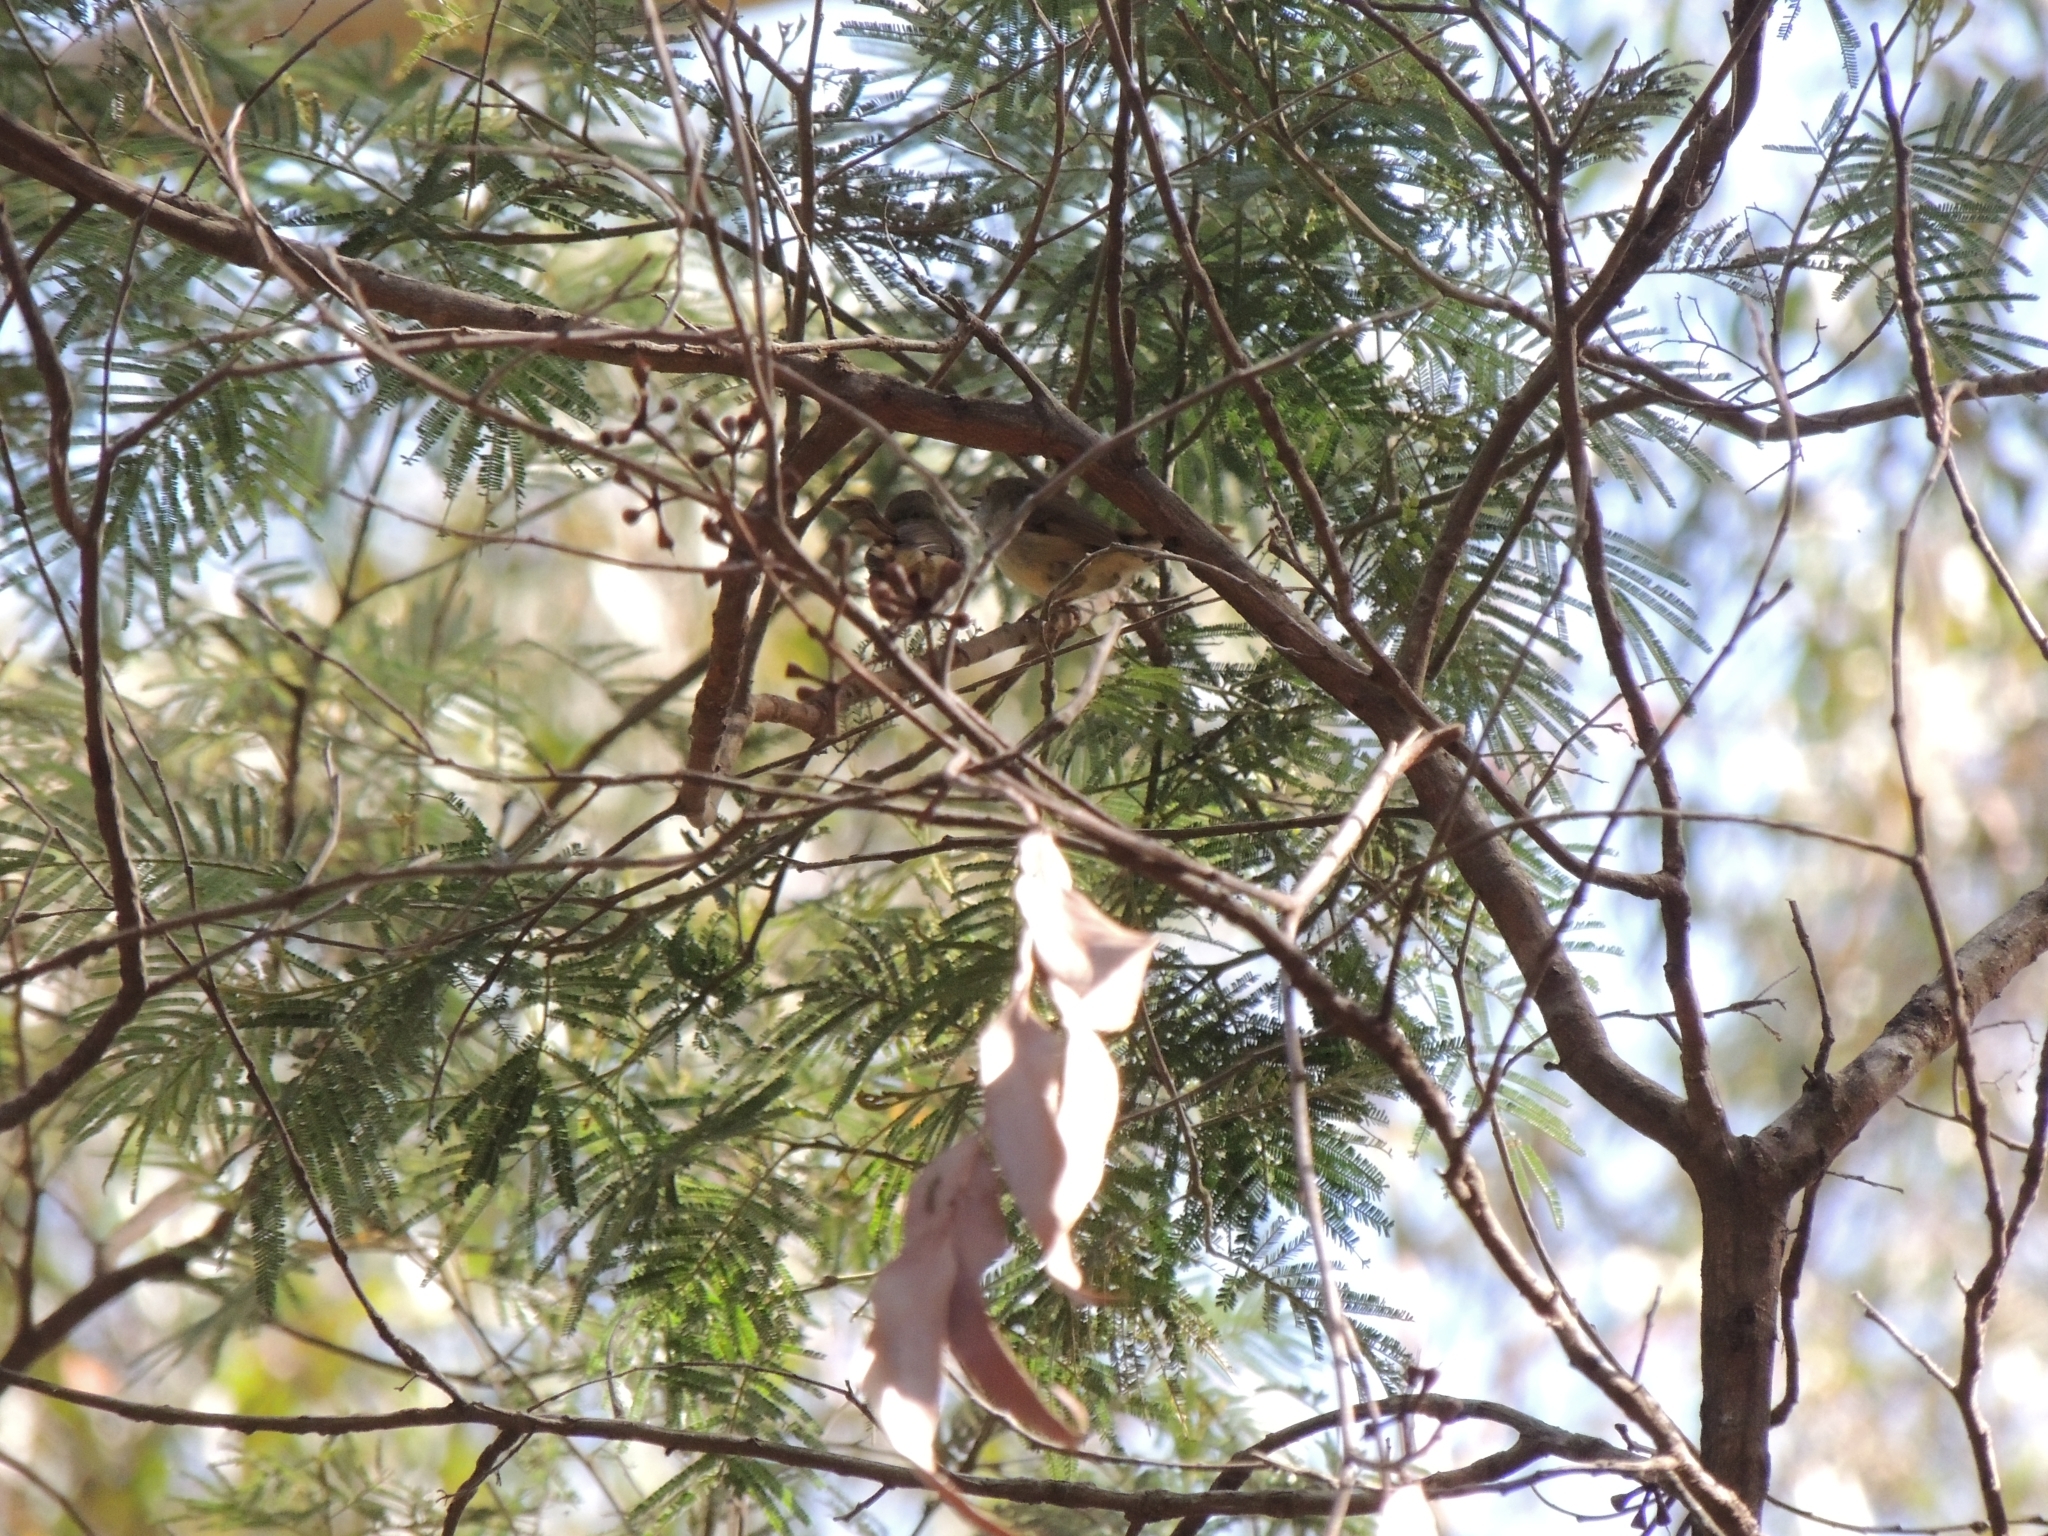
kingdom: Animalia
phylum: Chordata
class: Aves
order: Passeriformes
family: Acanthizidae
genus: Acanthiza
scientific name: Acanthiza pusilla
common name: Brown thornbill
